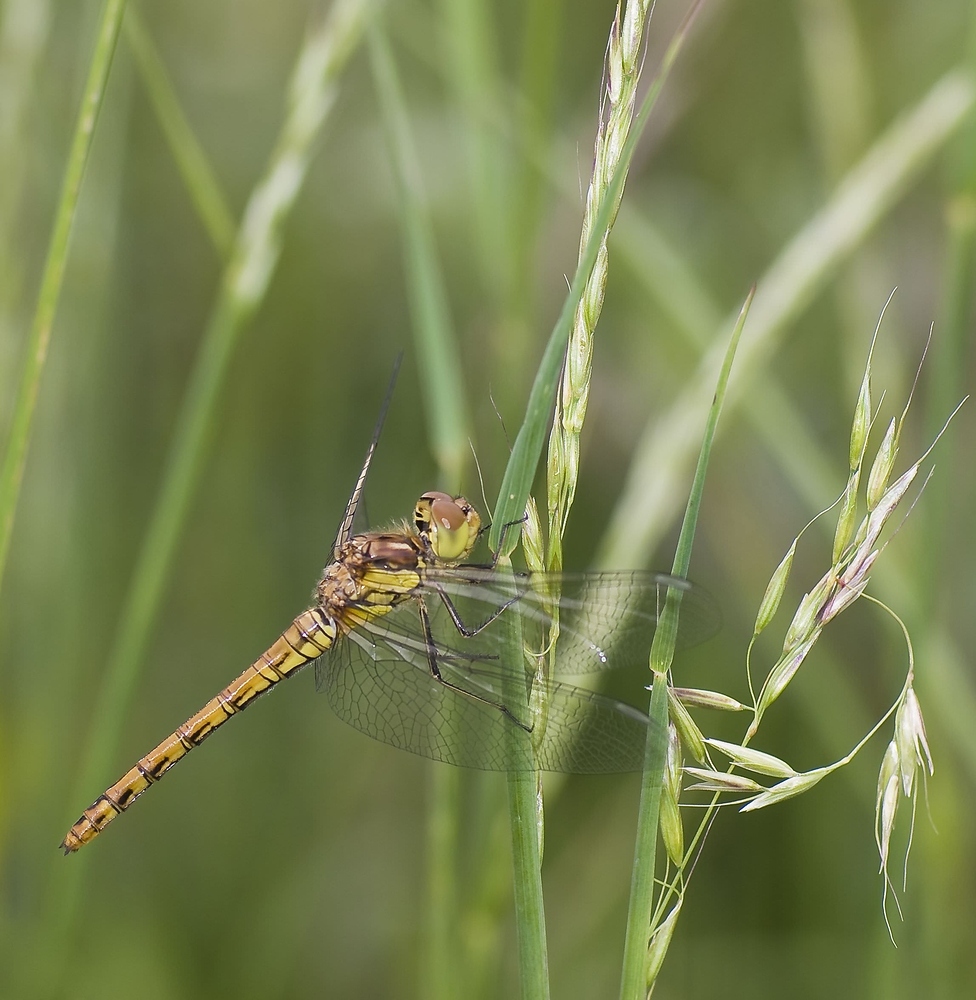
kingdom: Animalia
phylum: Arthropoda
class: Insecta
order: Odonata
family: Libellulidae
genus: Sympetrum
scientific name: Sympetrum striolatum
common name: Common darter
